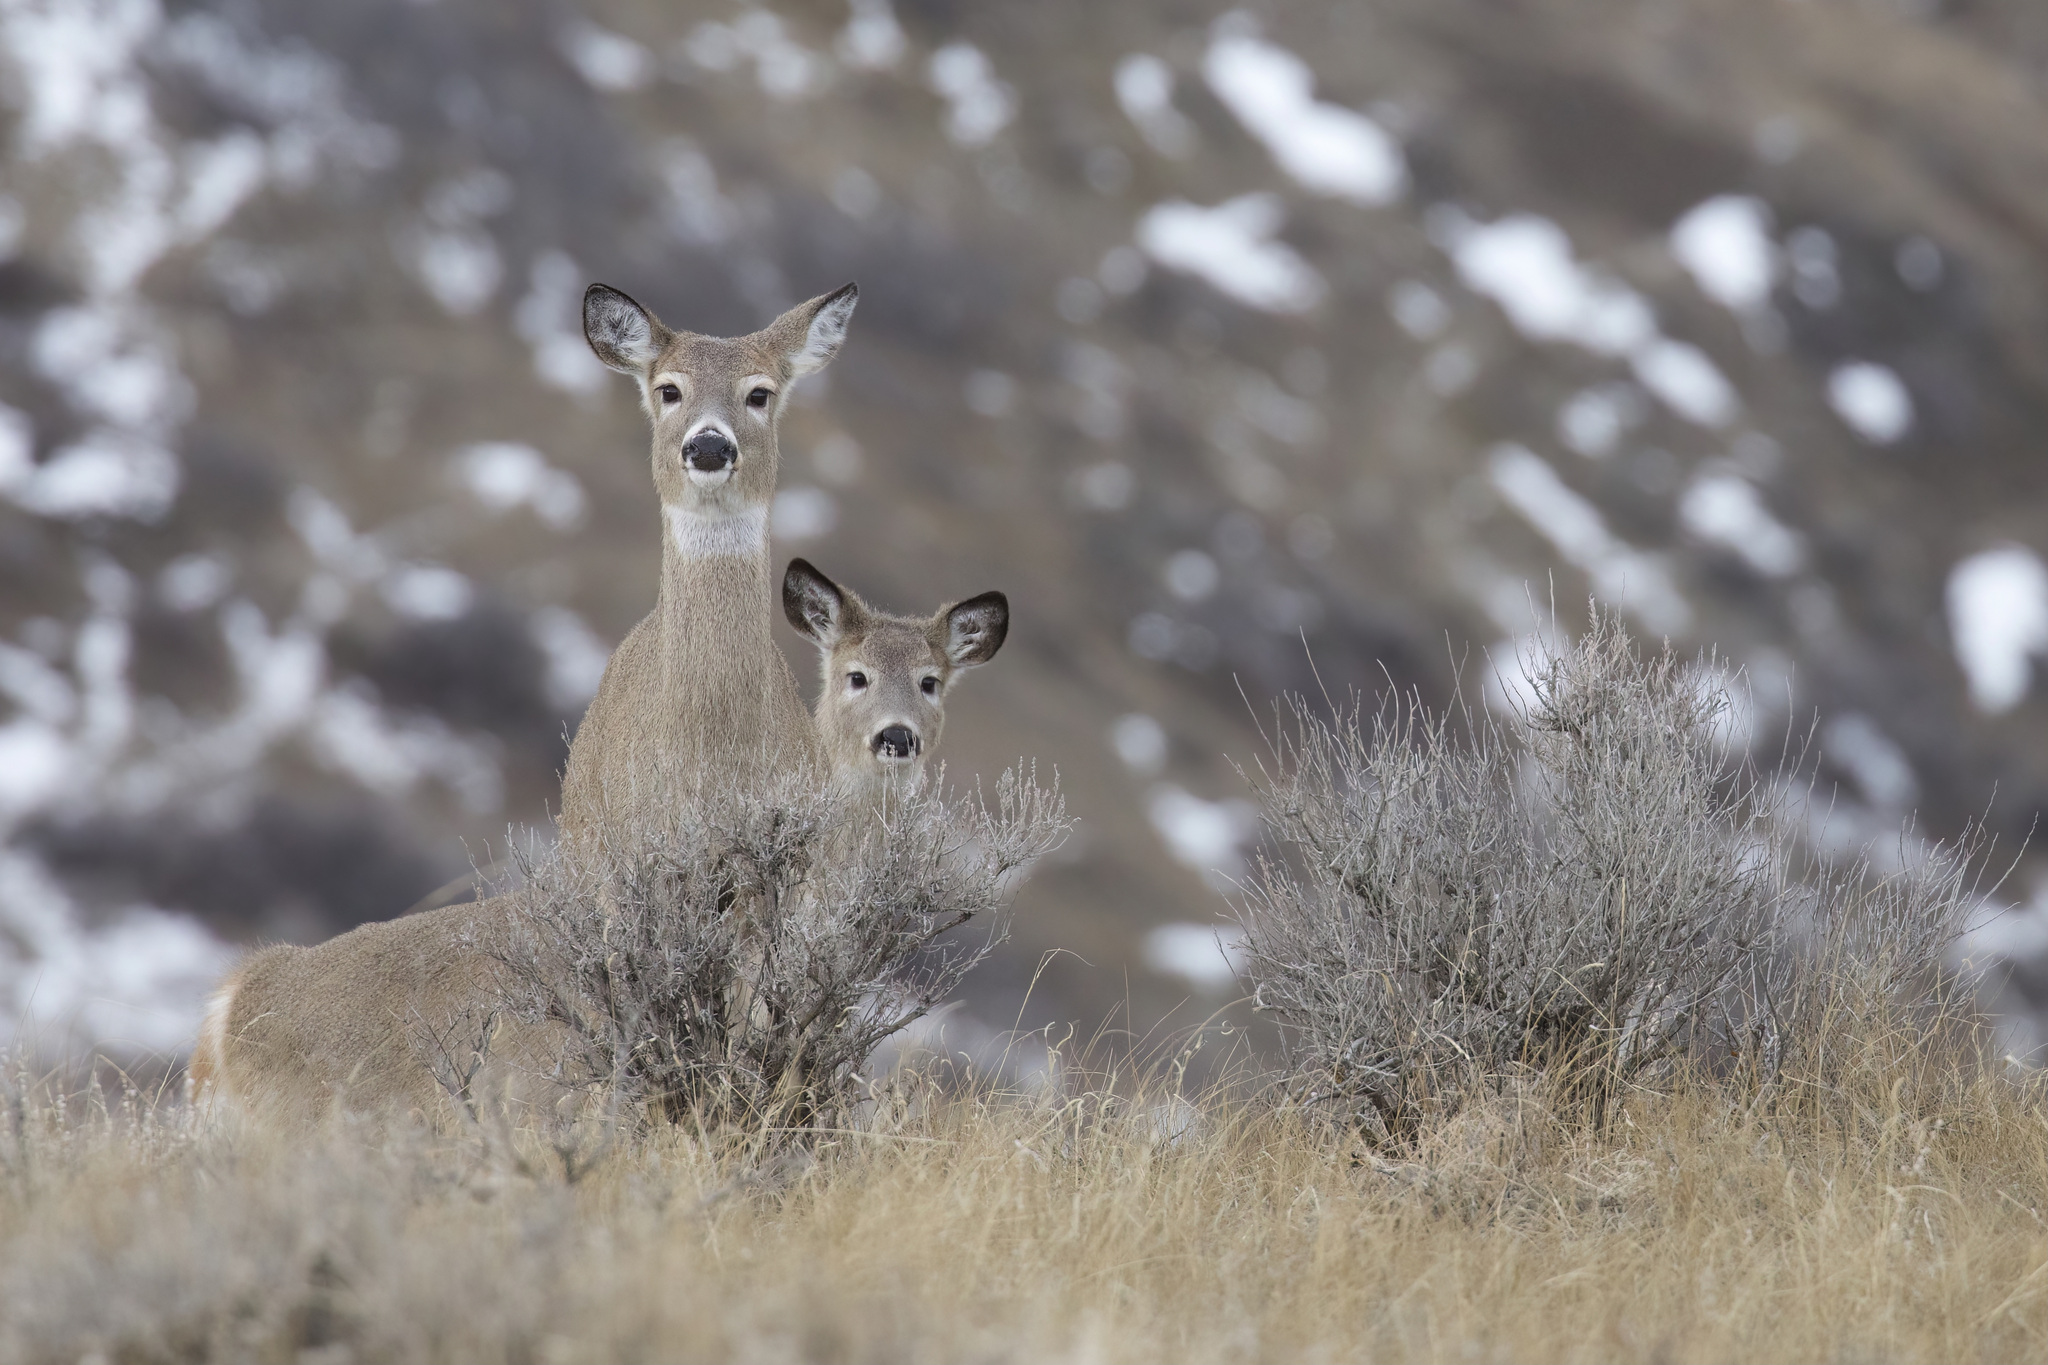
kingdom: Animalia
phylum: Chordata
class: Mammalia
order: Artiodactyla
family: Cervidae
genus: Odocoileus
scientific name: Odocoileus virginianus
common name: White-tailed deer
